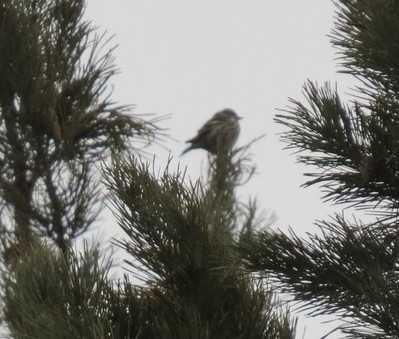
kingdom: Animalia
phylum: Chordata
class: Aves
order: Passeriformes
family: Fringillidae
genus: Spinus
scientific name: Spinus spinus
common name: Eurasian siskin
